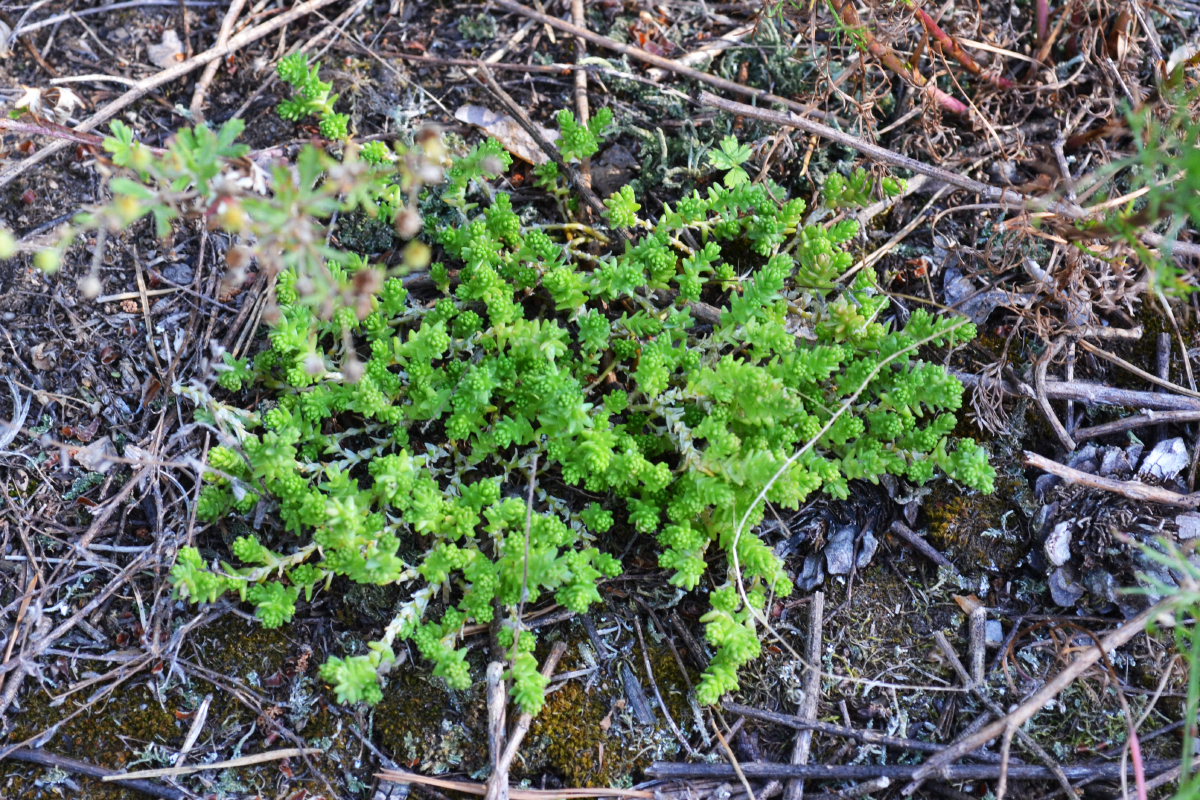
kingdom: Plantae
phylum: Tracheophyta
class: Magnoliopsida
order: Saxifragales
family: Crassulaceae
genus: Sedum
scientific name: Sedum acre
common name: Biting stonecrop
